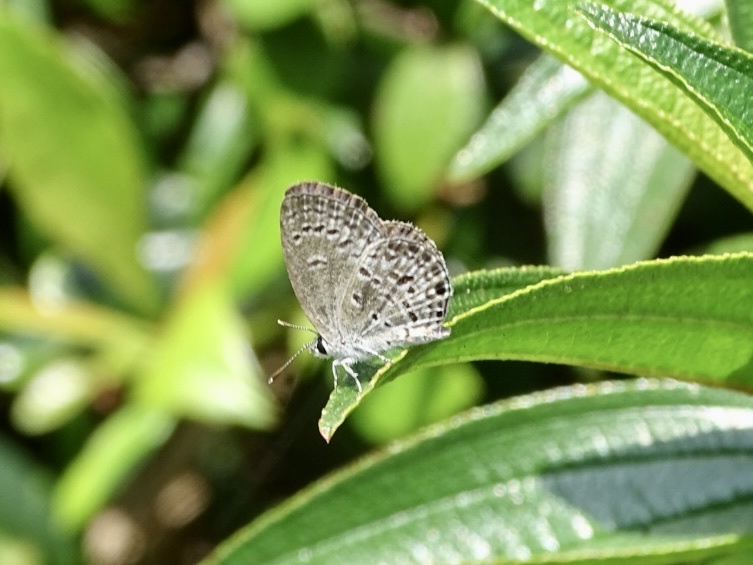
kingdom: Animalia
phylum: Arthropoda
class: Insecta
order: Lepidoptera
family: Lycaenidae
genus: Chilades
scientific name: Chilades laius
